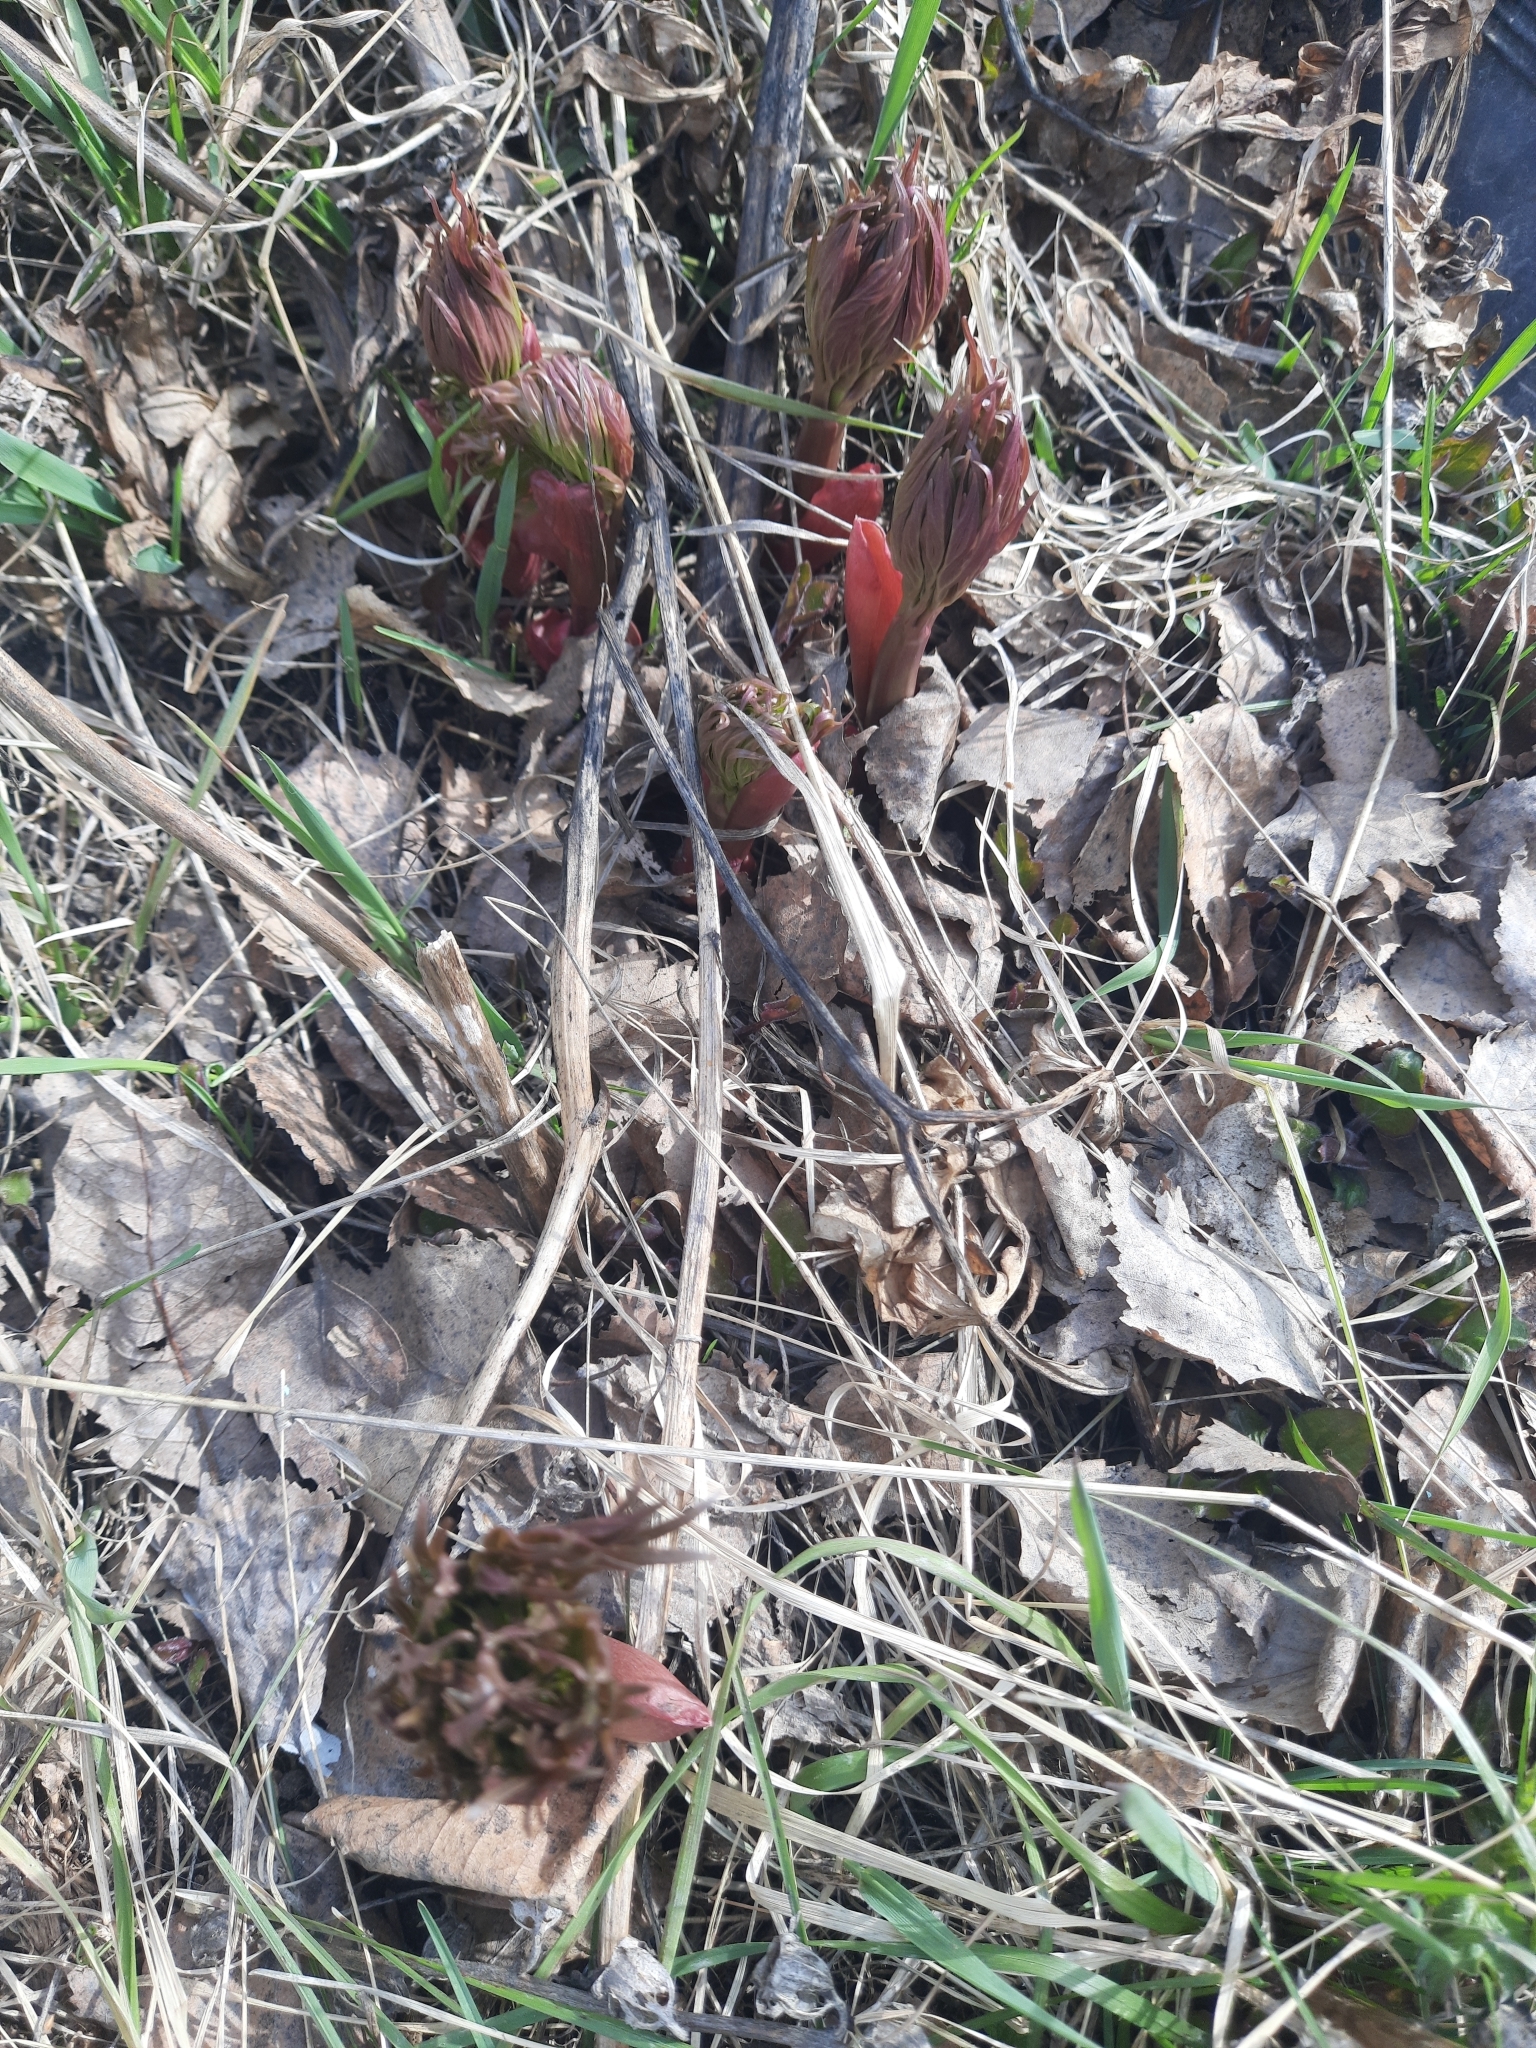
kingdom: Plantae
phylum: Tracheophyta
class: Magnoliopsida
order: Saxifragales
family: Paeoniaceae
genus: Paeonia
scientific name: Paeonia anomala
